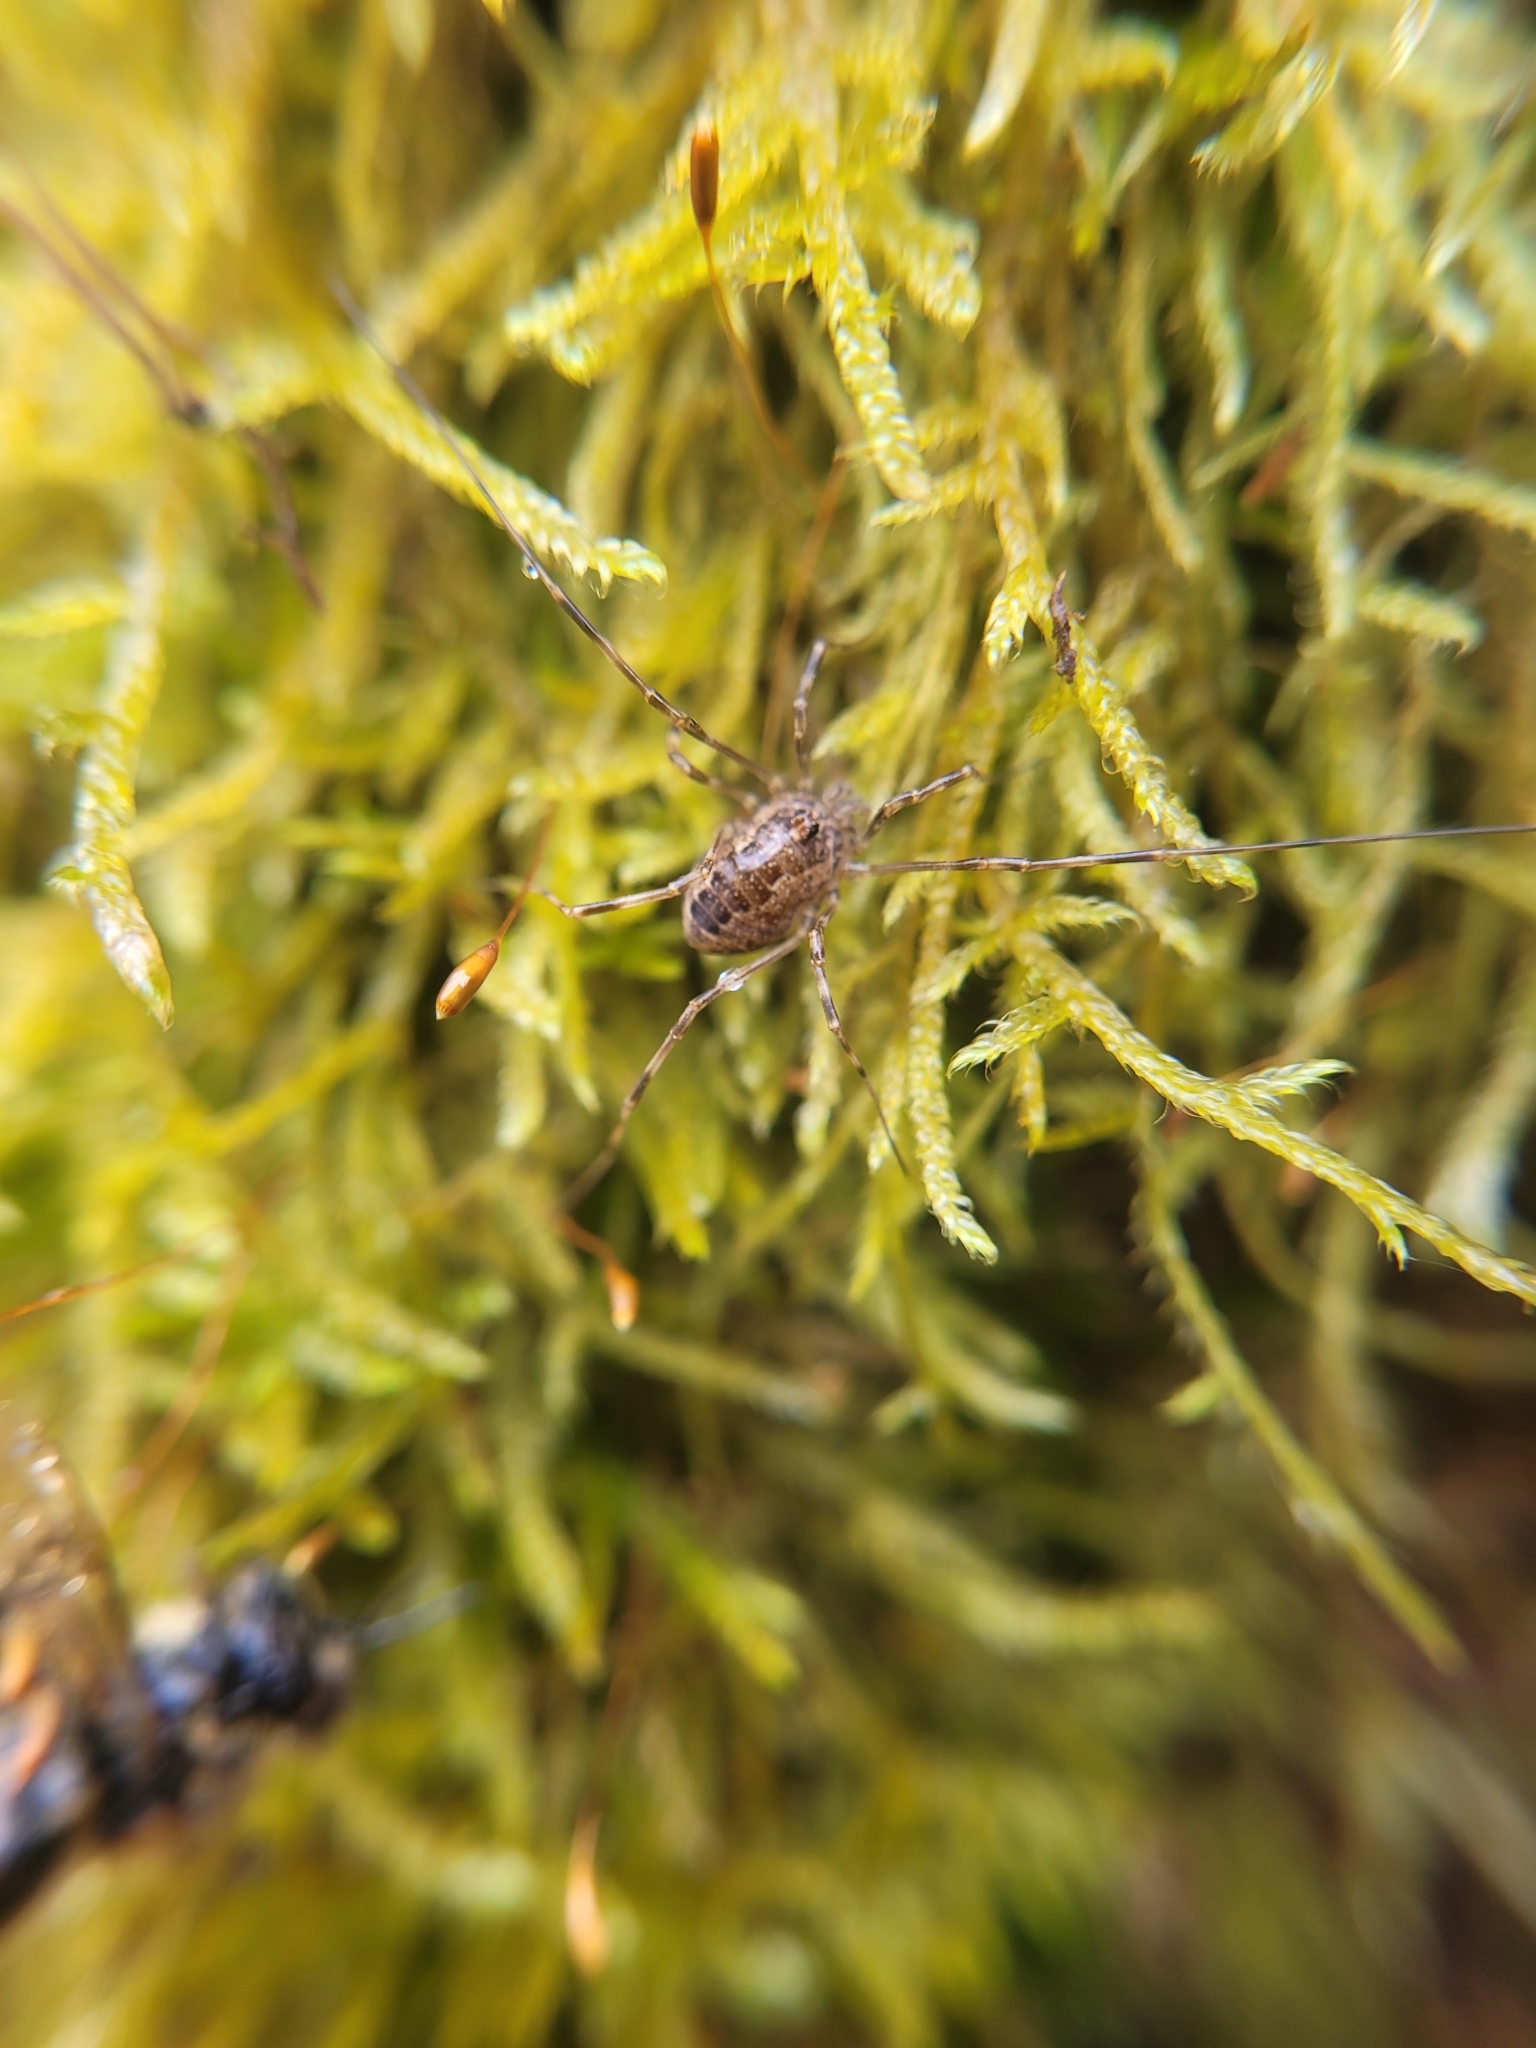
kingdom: Animalia
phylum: Arthropoda
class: Arachnida
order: Opiliones
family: Phalangiidae
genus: Rilaena
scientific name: Rilaena triangularis
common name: Spring harvestman
